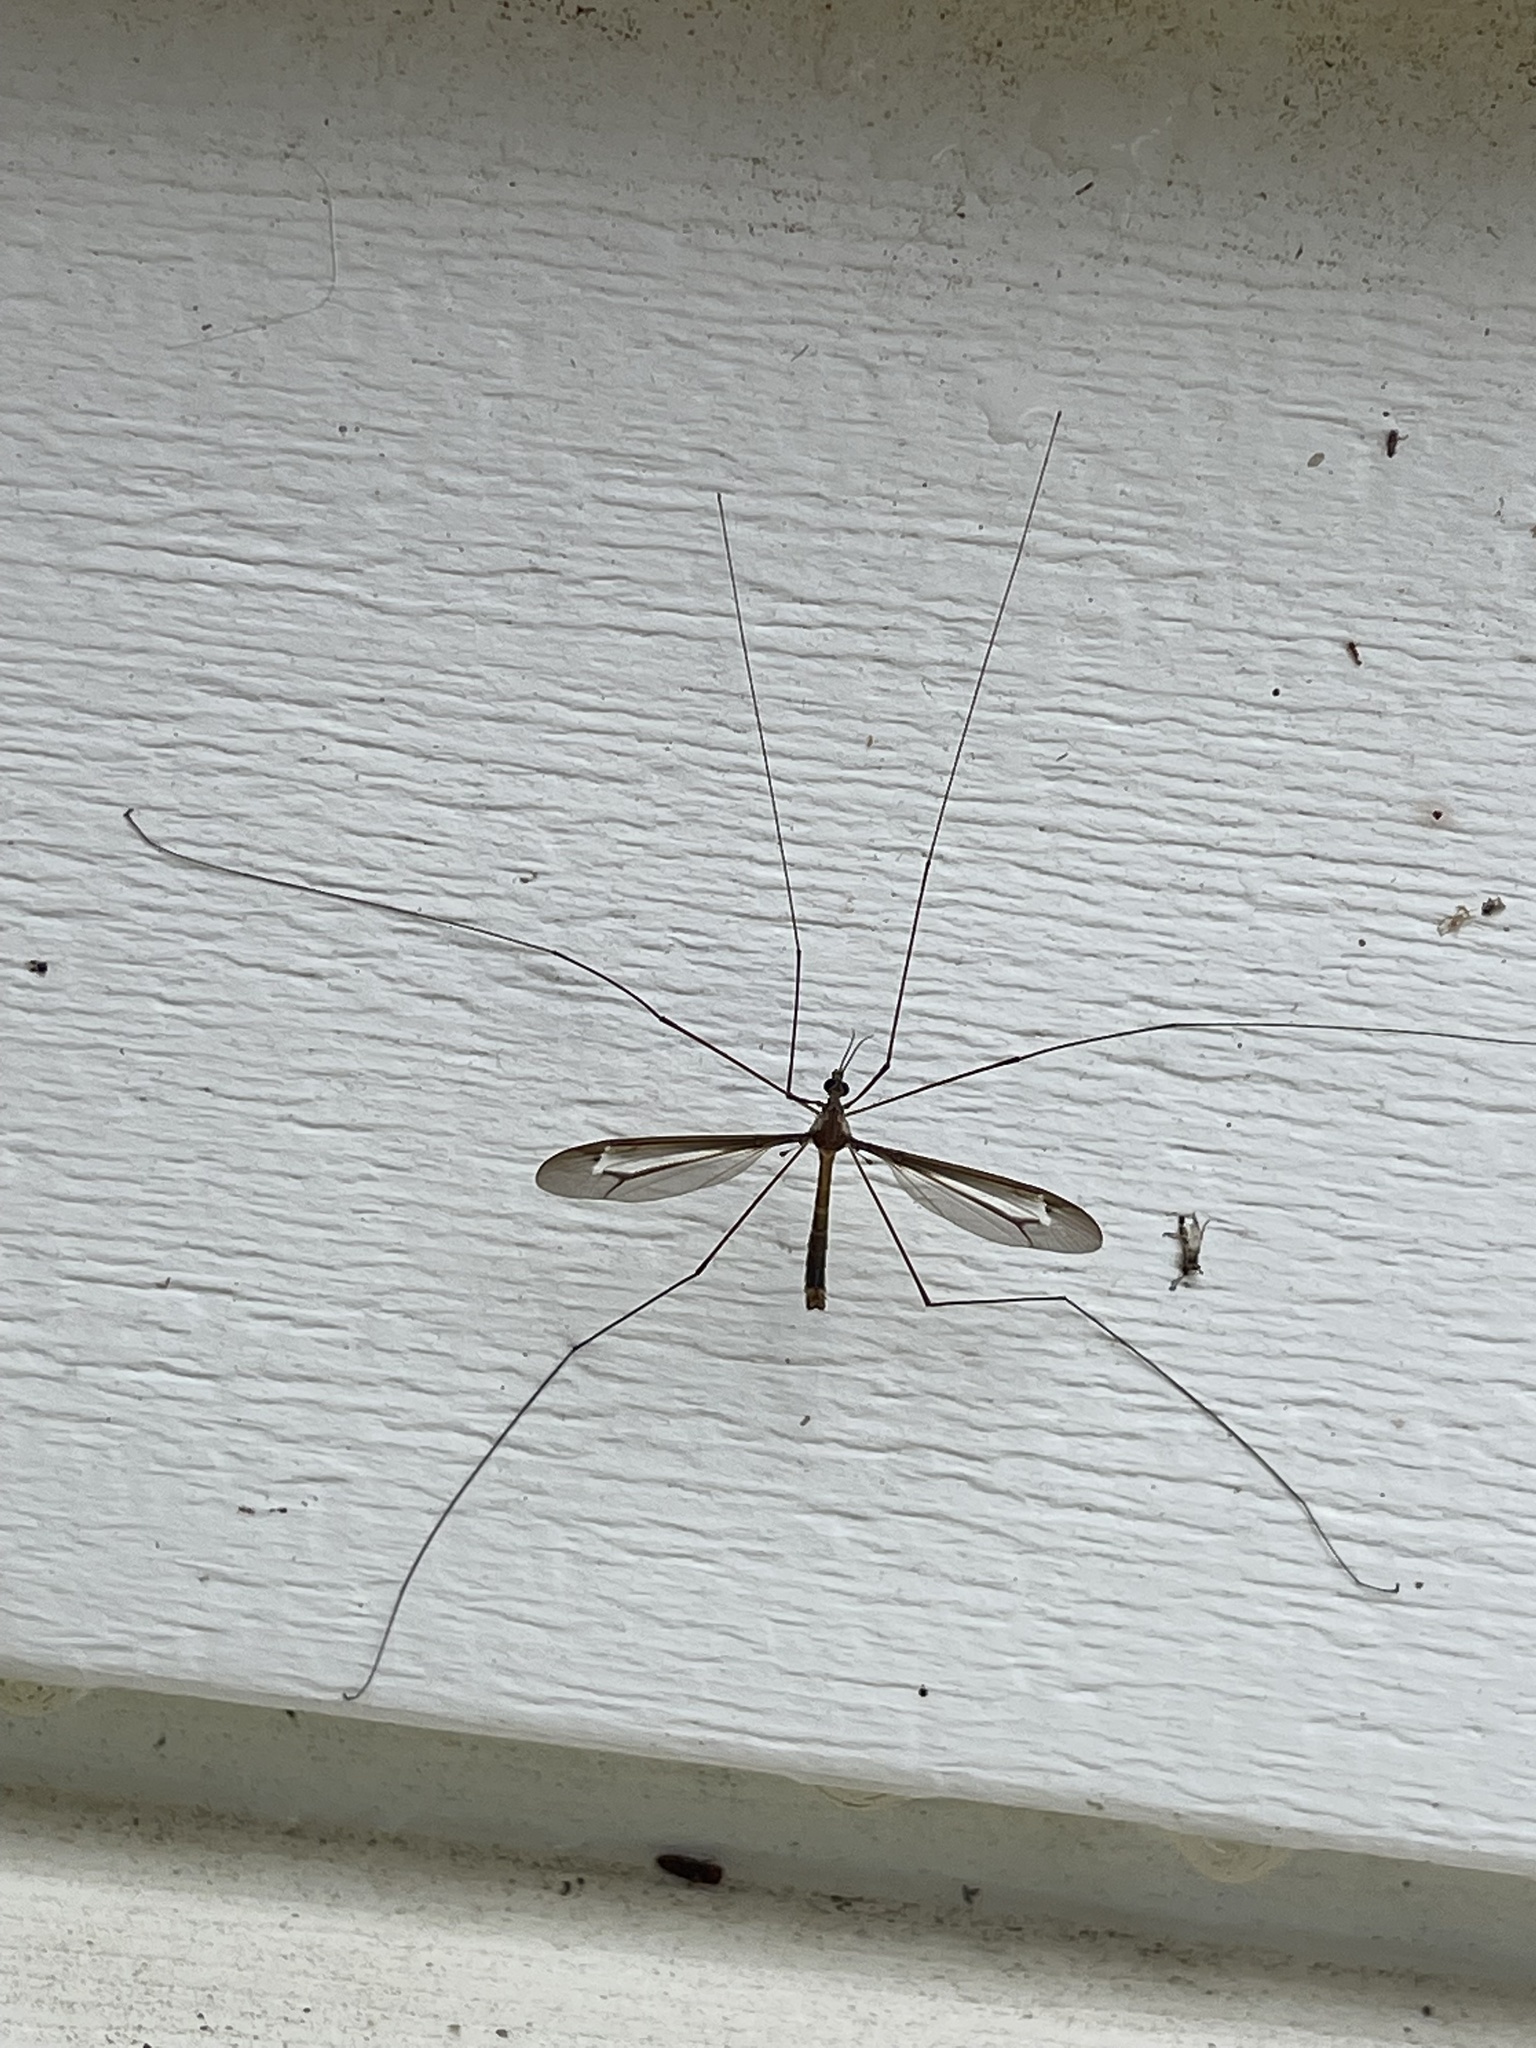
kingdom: Animalia
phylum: Arthropoda
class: Insecta
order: Diptera
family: Tipulidae
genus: Nephrotoma
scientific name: Nephrotoma ferruginea
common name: Ferruginous tiger crane fly
